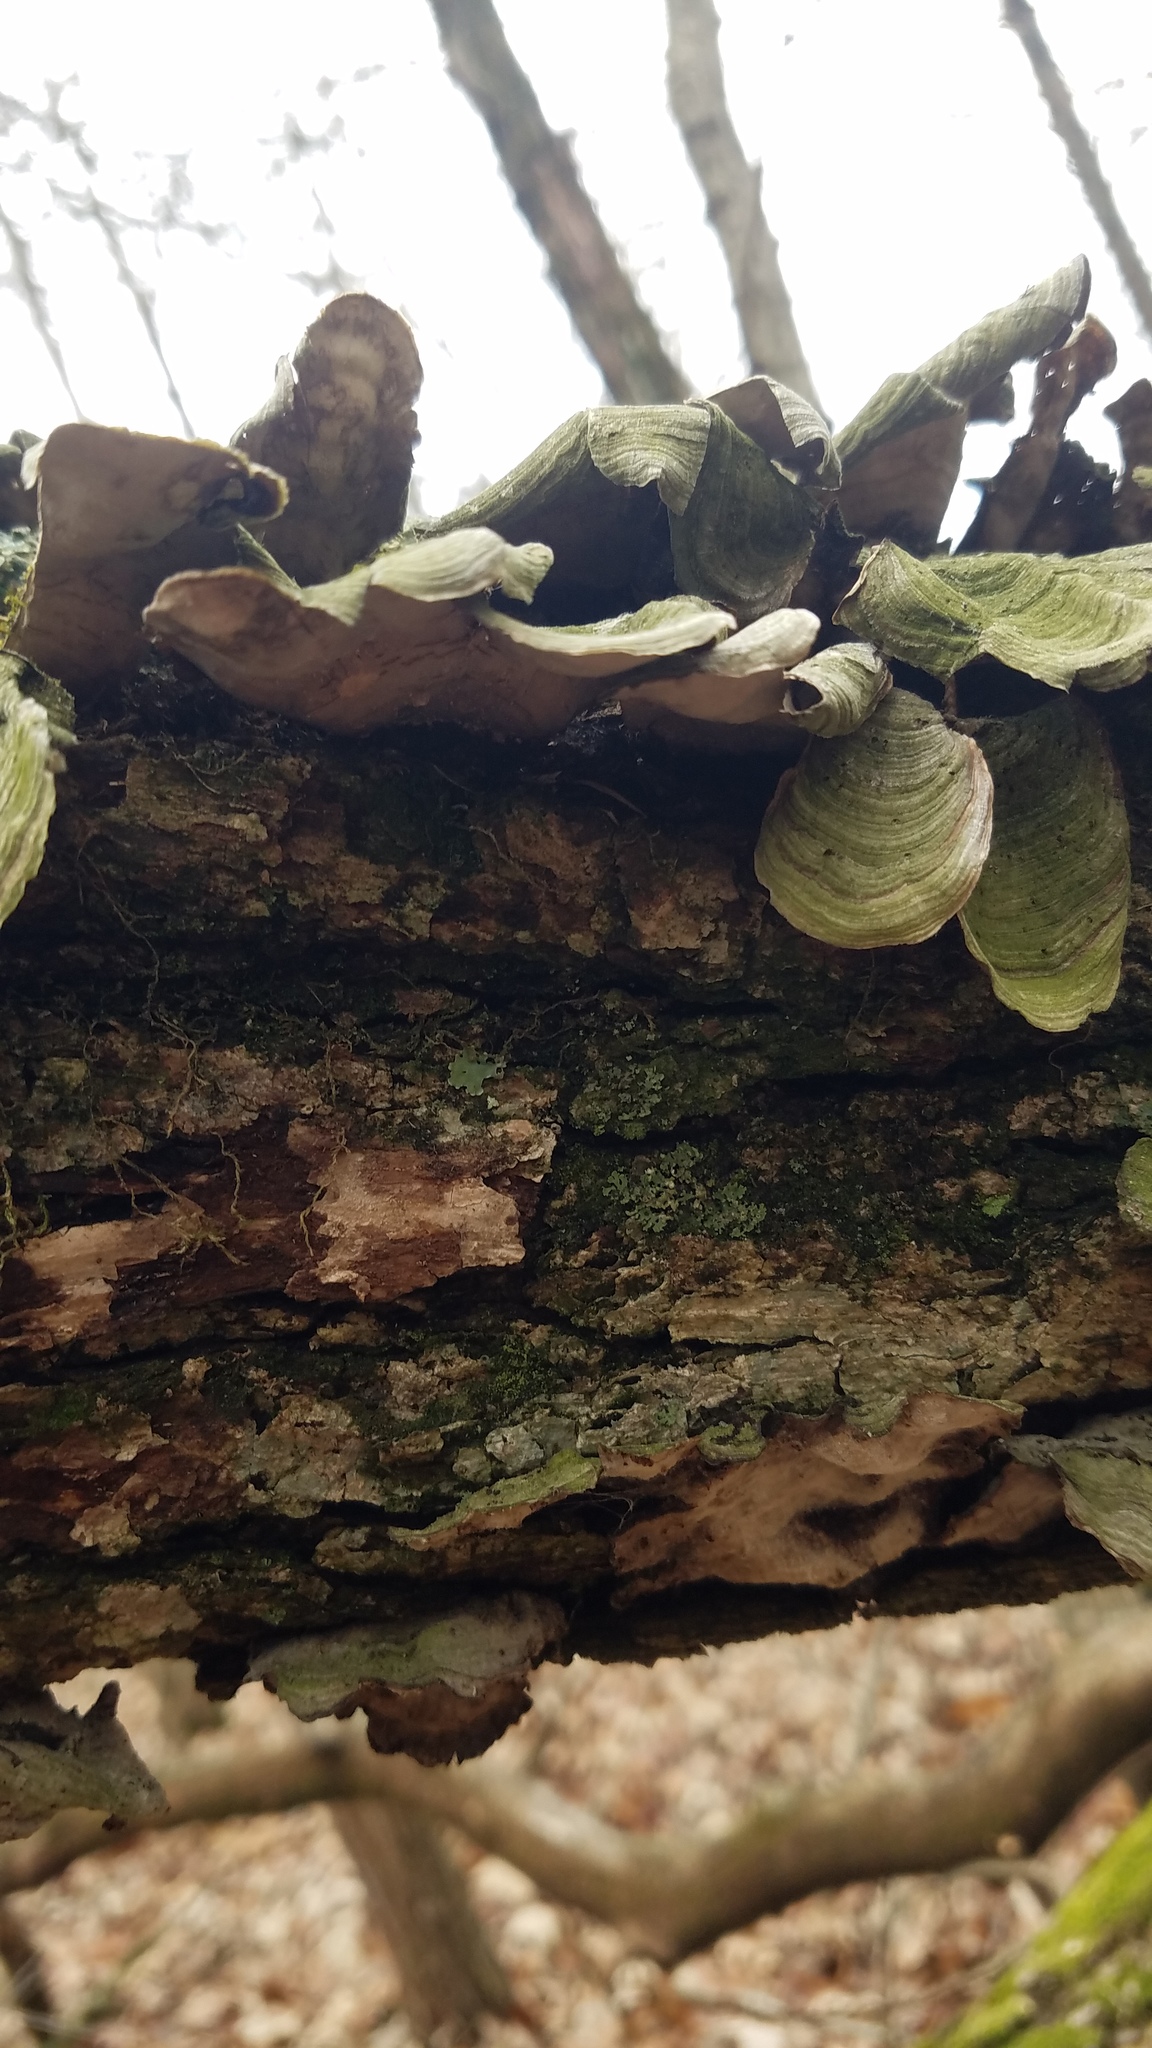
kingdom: Fungi
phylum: Basidiomycota
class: Agaricomycetes
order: Russulales
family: Stereaceae
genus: Stereum
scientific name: Stereum ostrea
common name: False turkeytail
